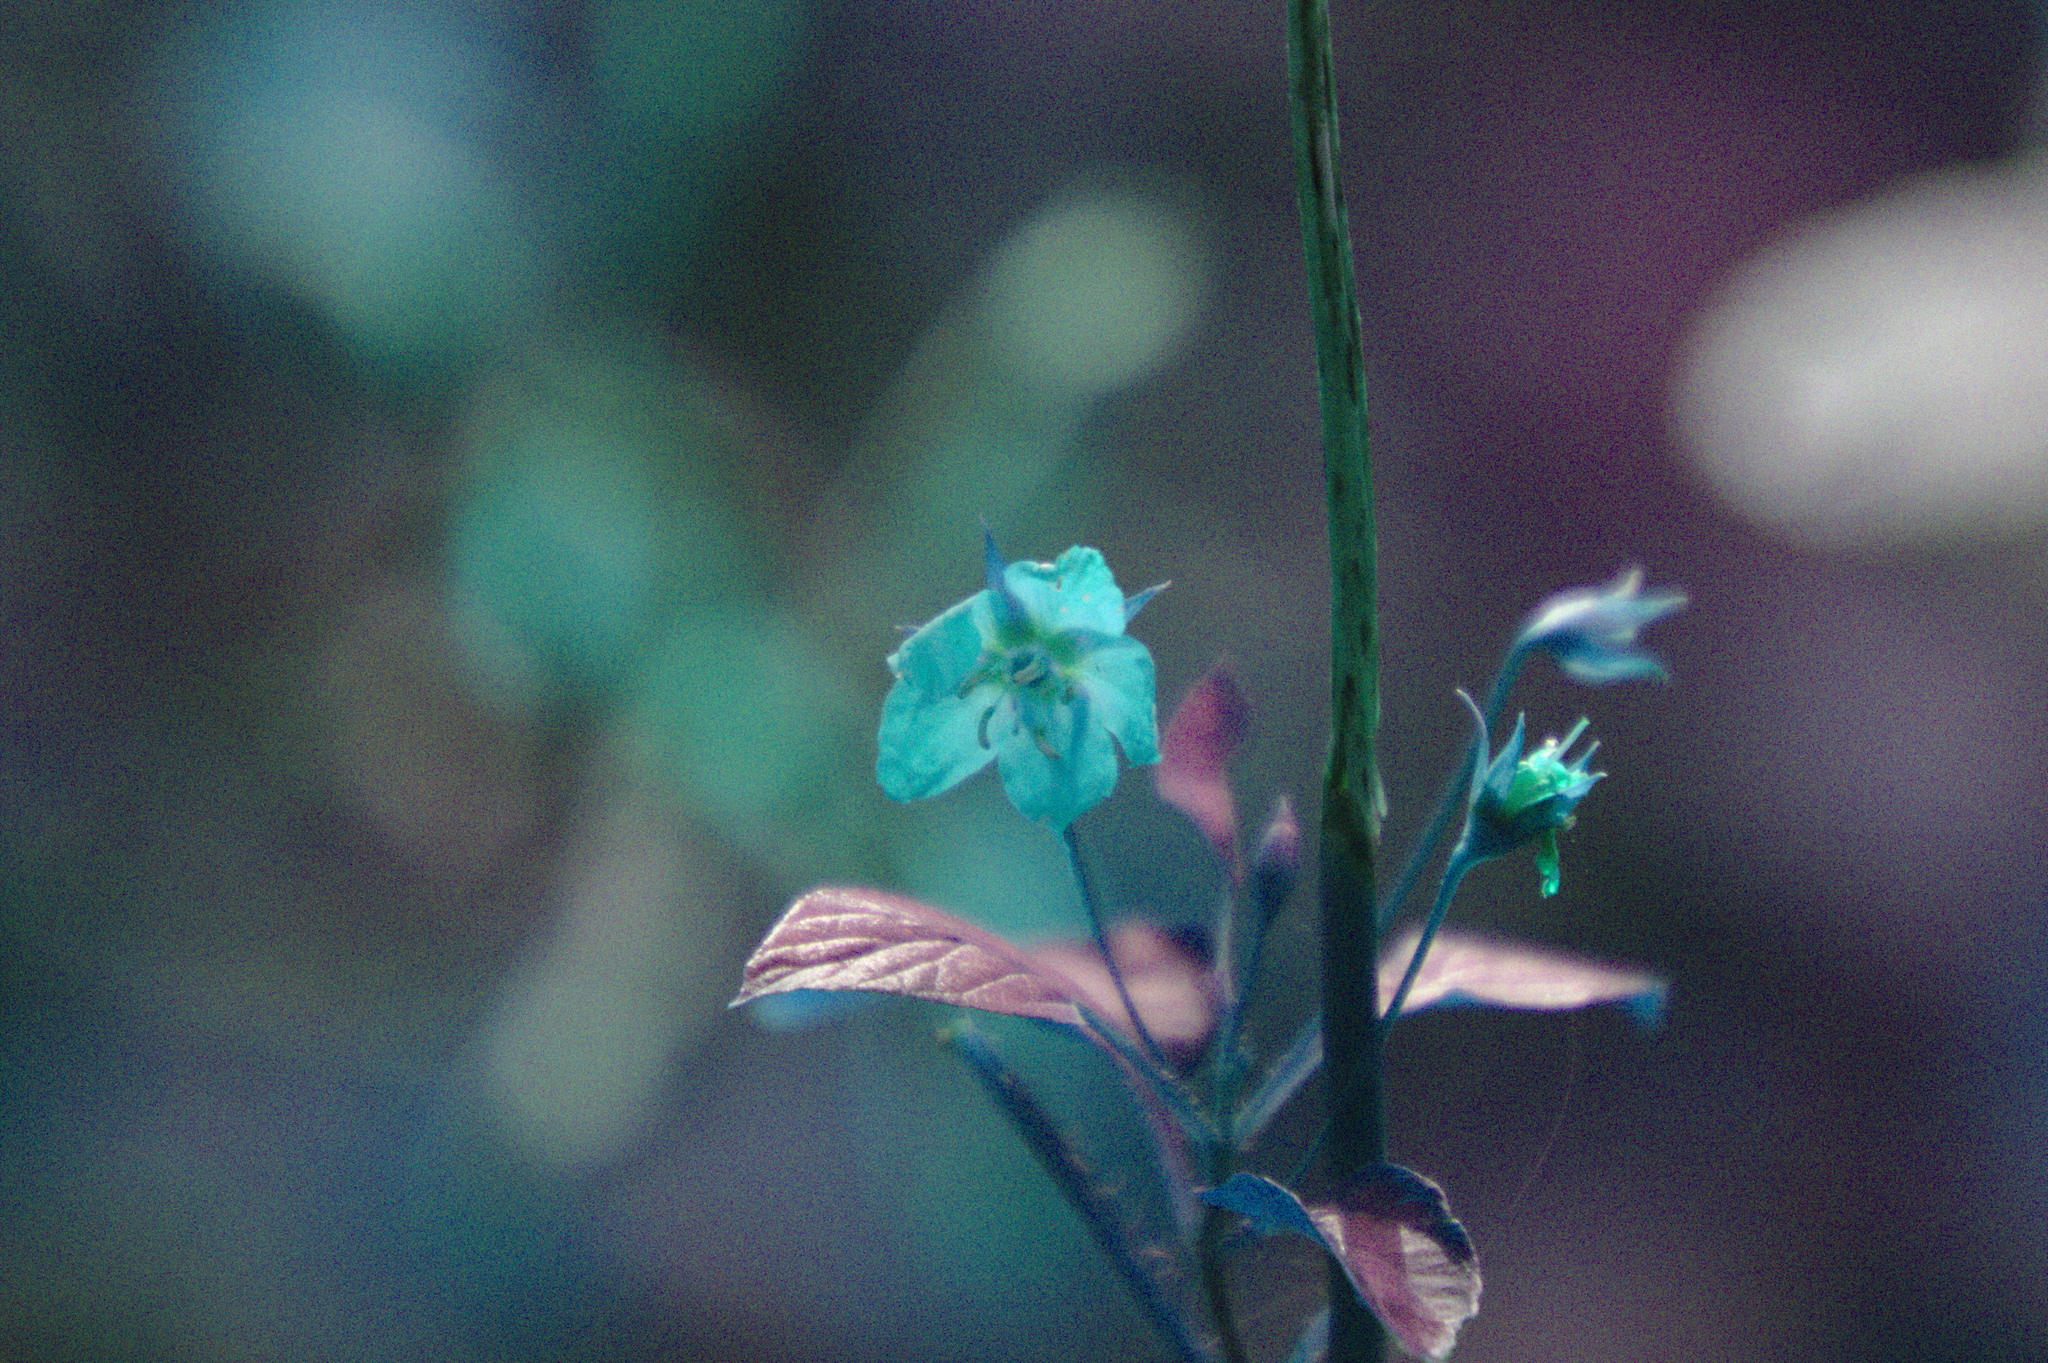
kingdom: Plantae
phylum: Tracheophyta
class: Magnoliopsida
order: Ericales
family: Primulaceae
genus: Lysimachia
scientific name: Lysimachia ciliata
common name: Fringed loosestrife
